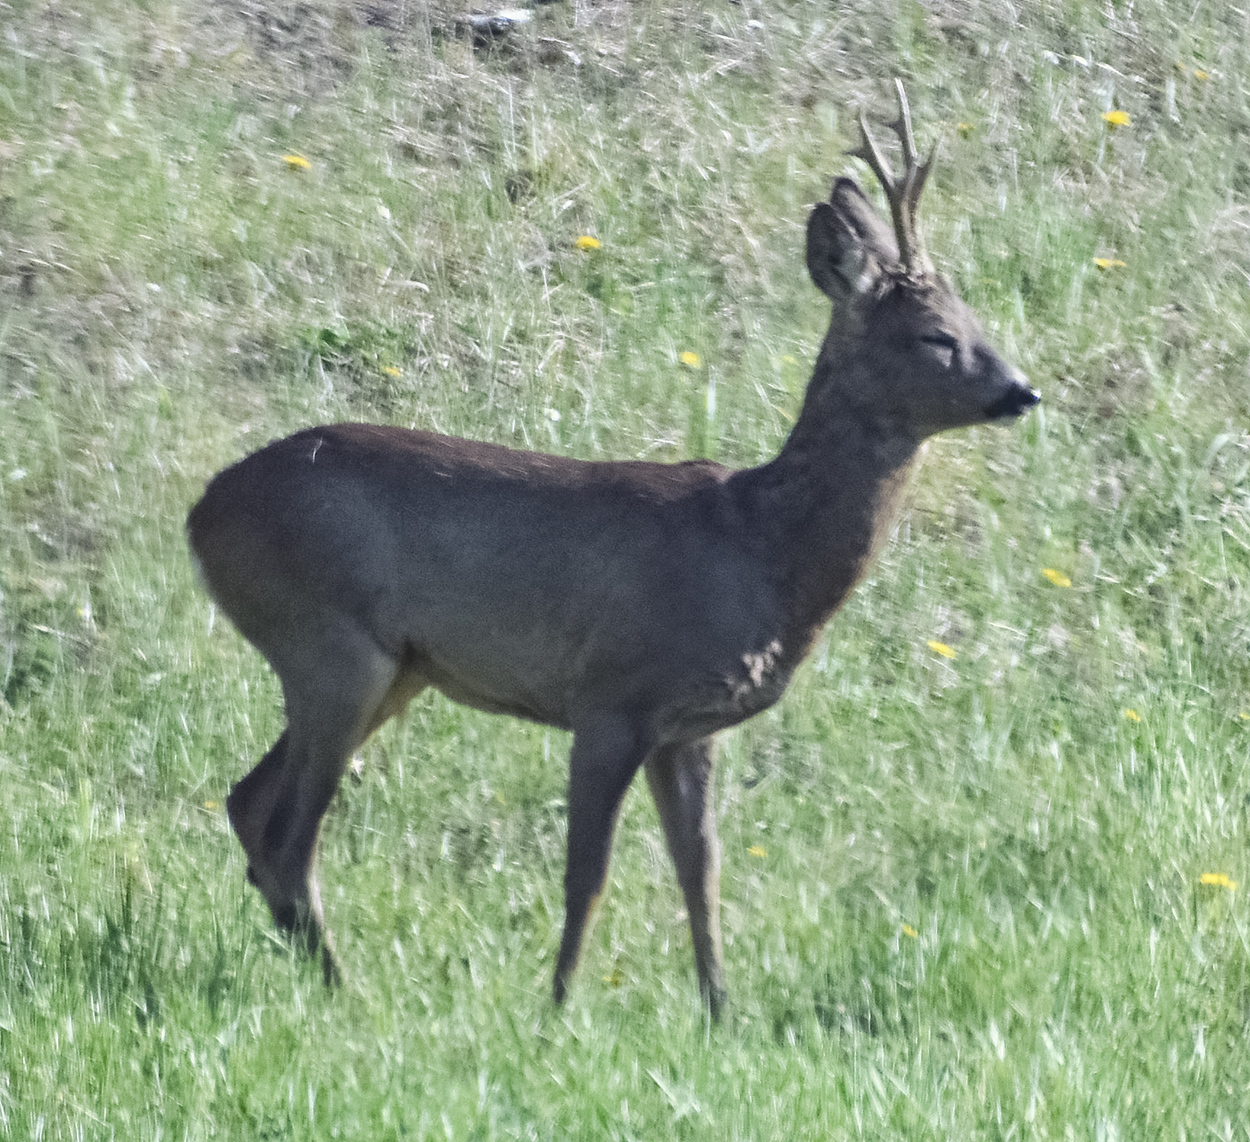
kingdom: Animalia
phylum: Chordata
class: Mammalia
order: Artiodactyla
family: Cervidae
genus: Capreolus
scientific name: Capreolus capreolus
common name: Western roe deer
